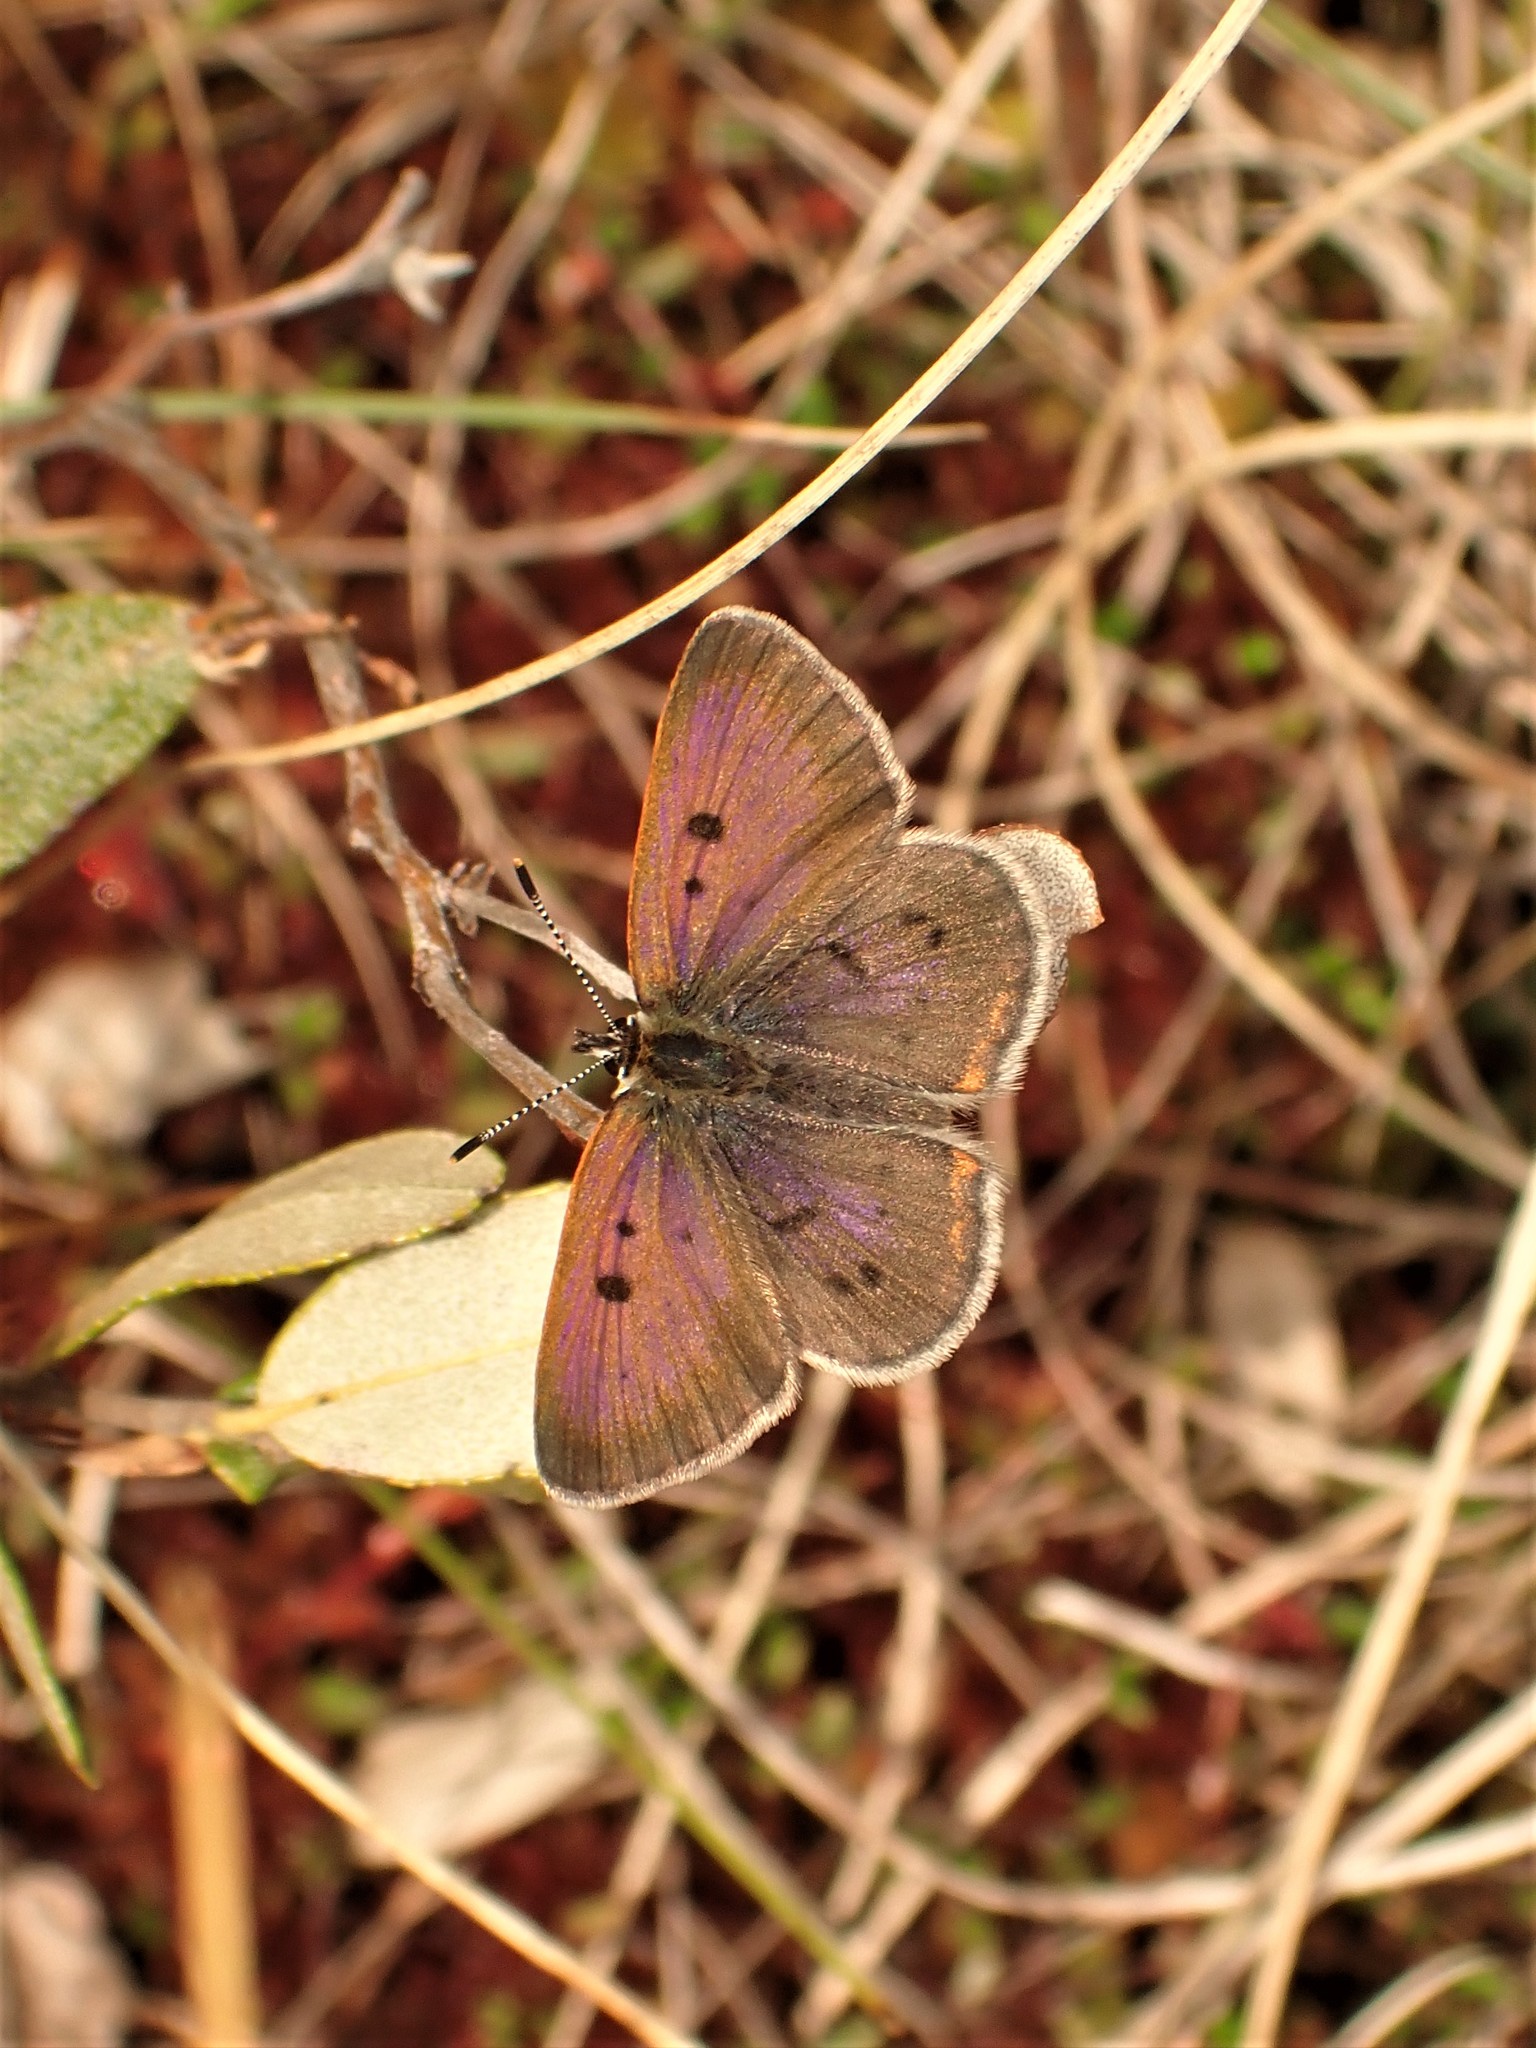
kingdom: Animalia
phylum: Arthropoda
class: Insecta
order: Lepidoptera
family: Lycaenidae
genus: Tharsalea
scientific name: Tharsalea epixanthe
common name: Bog copper
